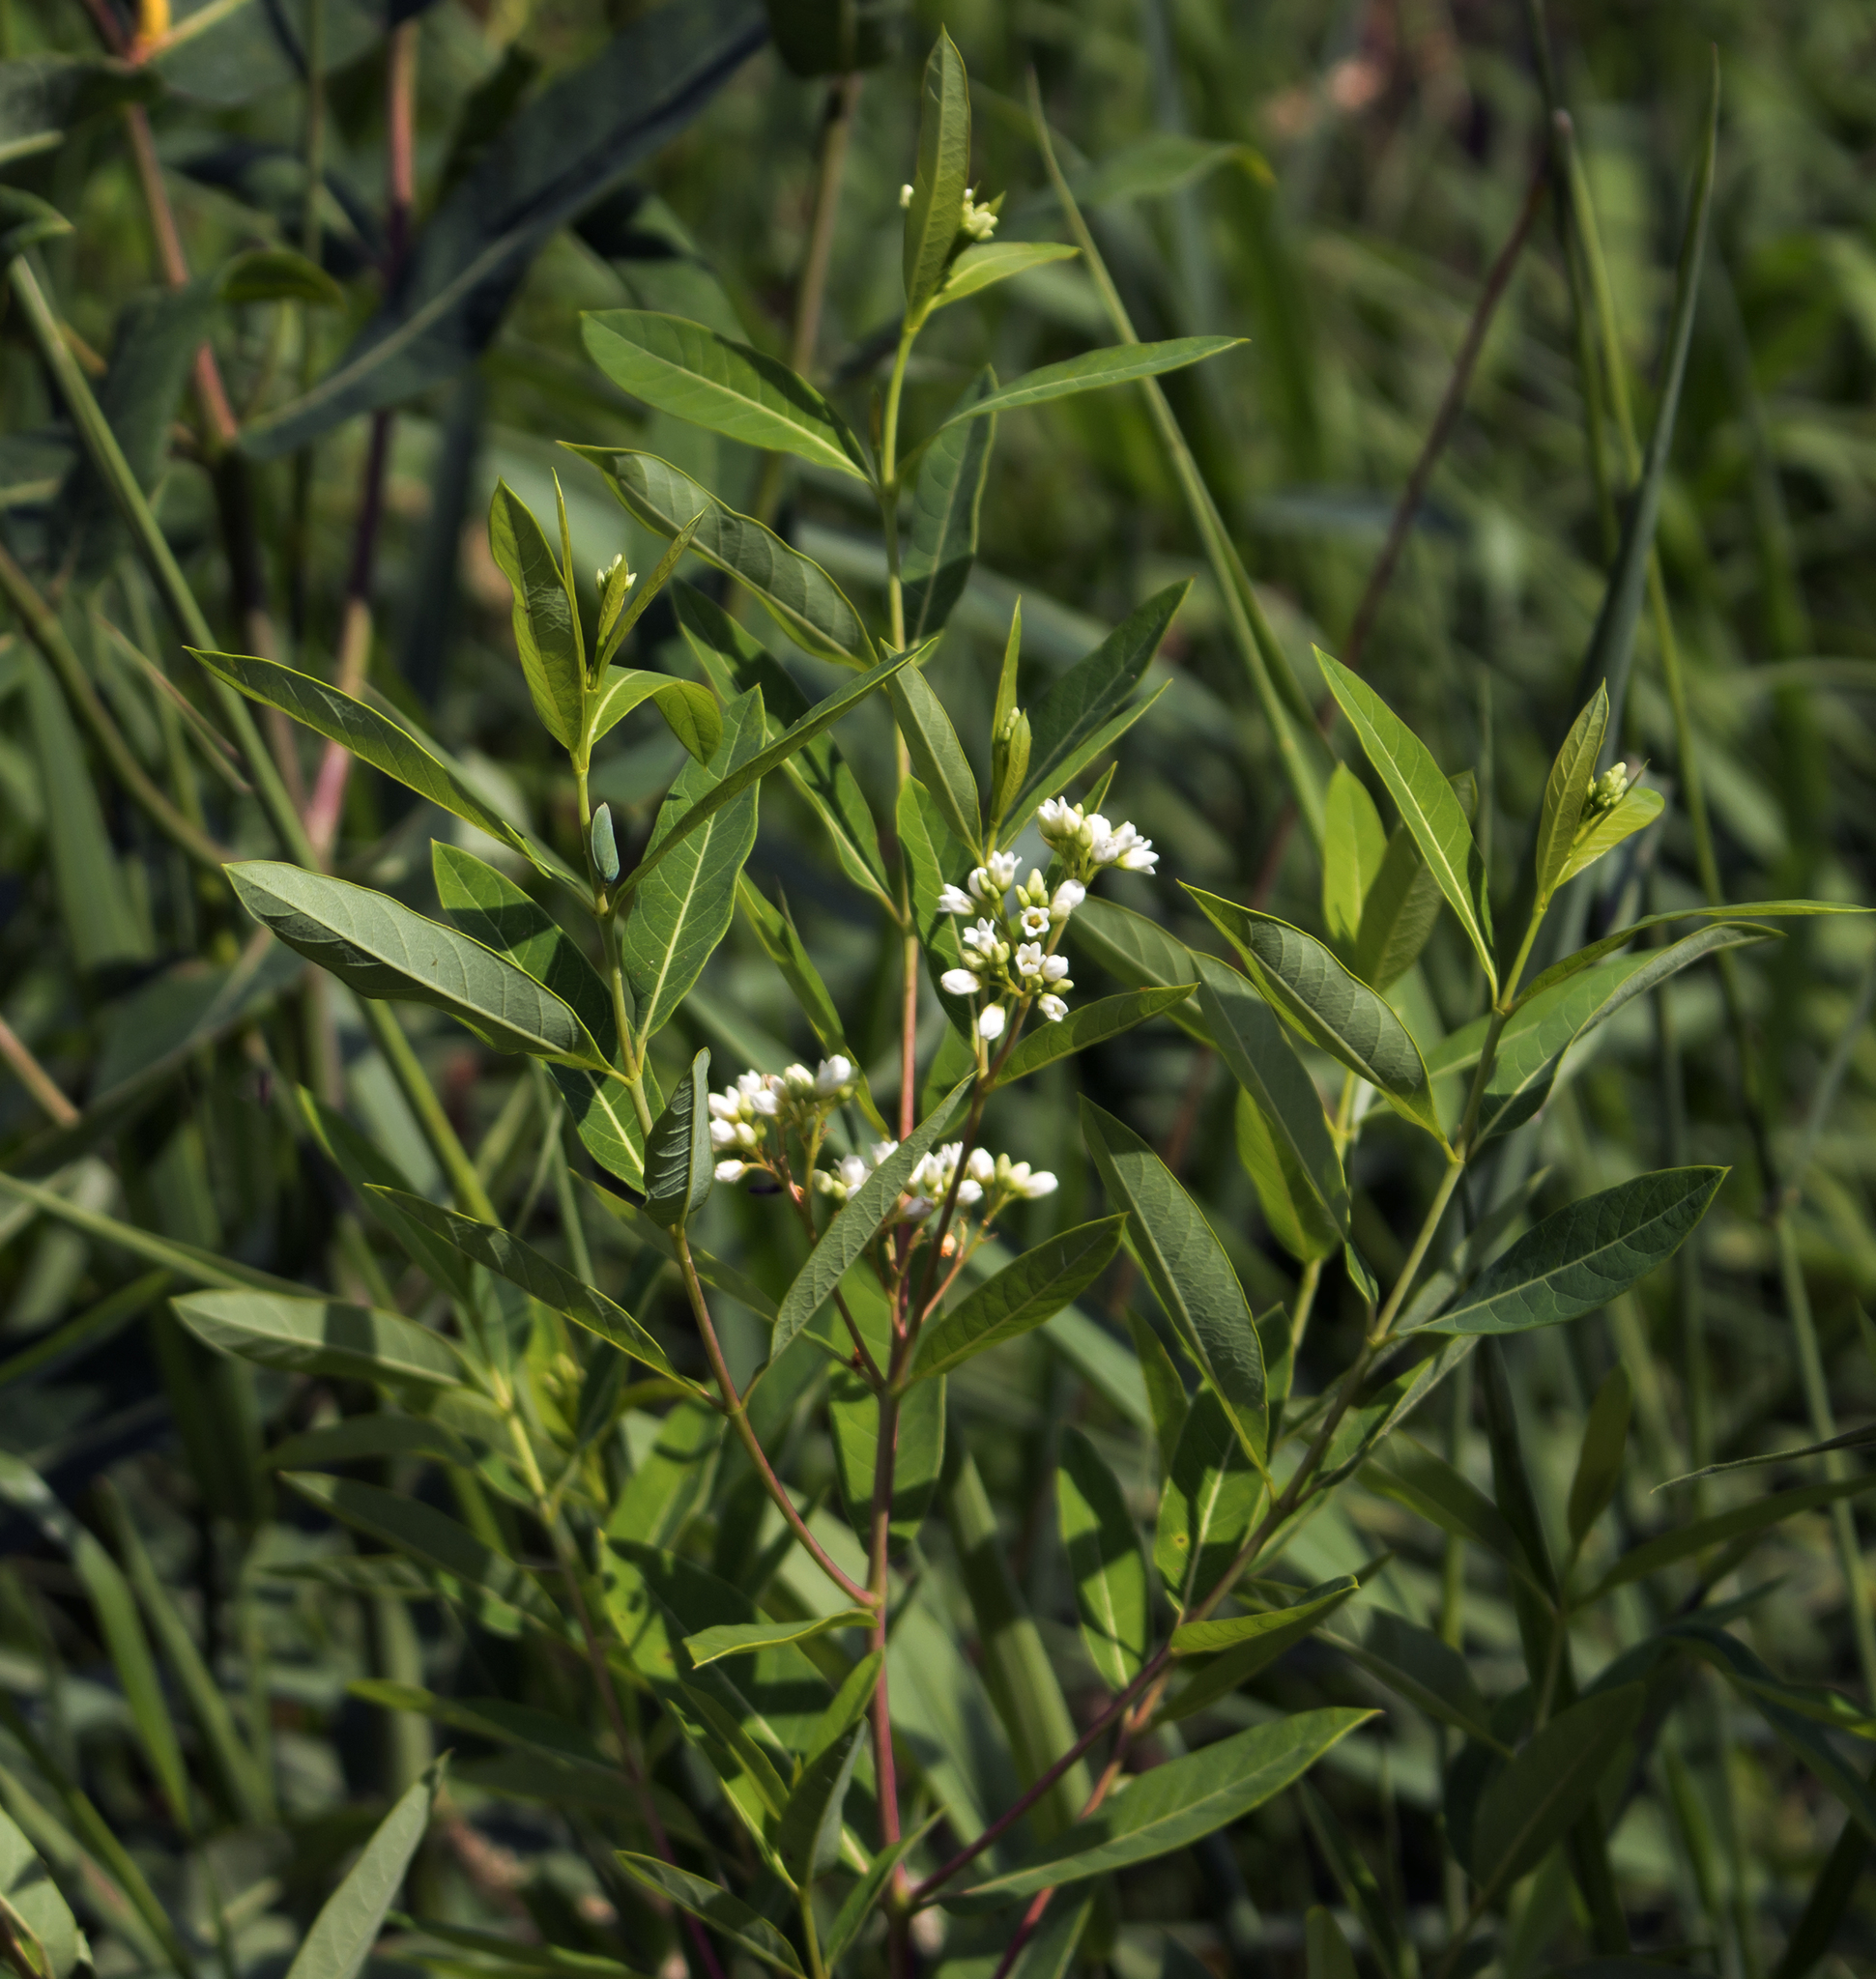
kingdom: Plantae
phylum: Tracheophyta
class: Magnoliopsida
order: Gentianales
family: Apocynaceae
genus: Apocynum
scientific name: Apocynum cannabinum
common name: Hemp dogbane
